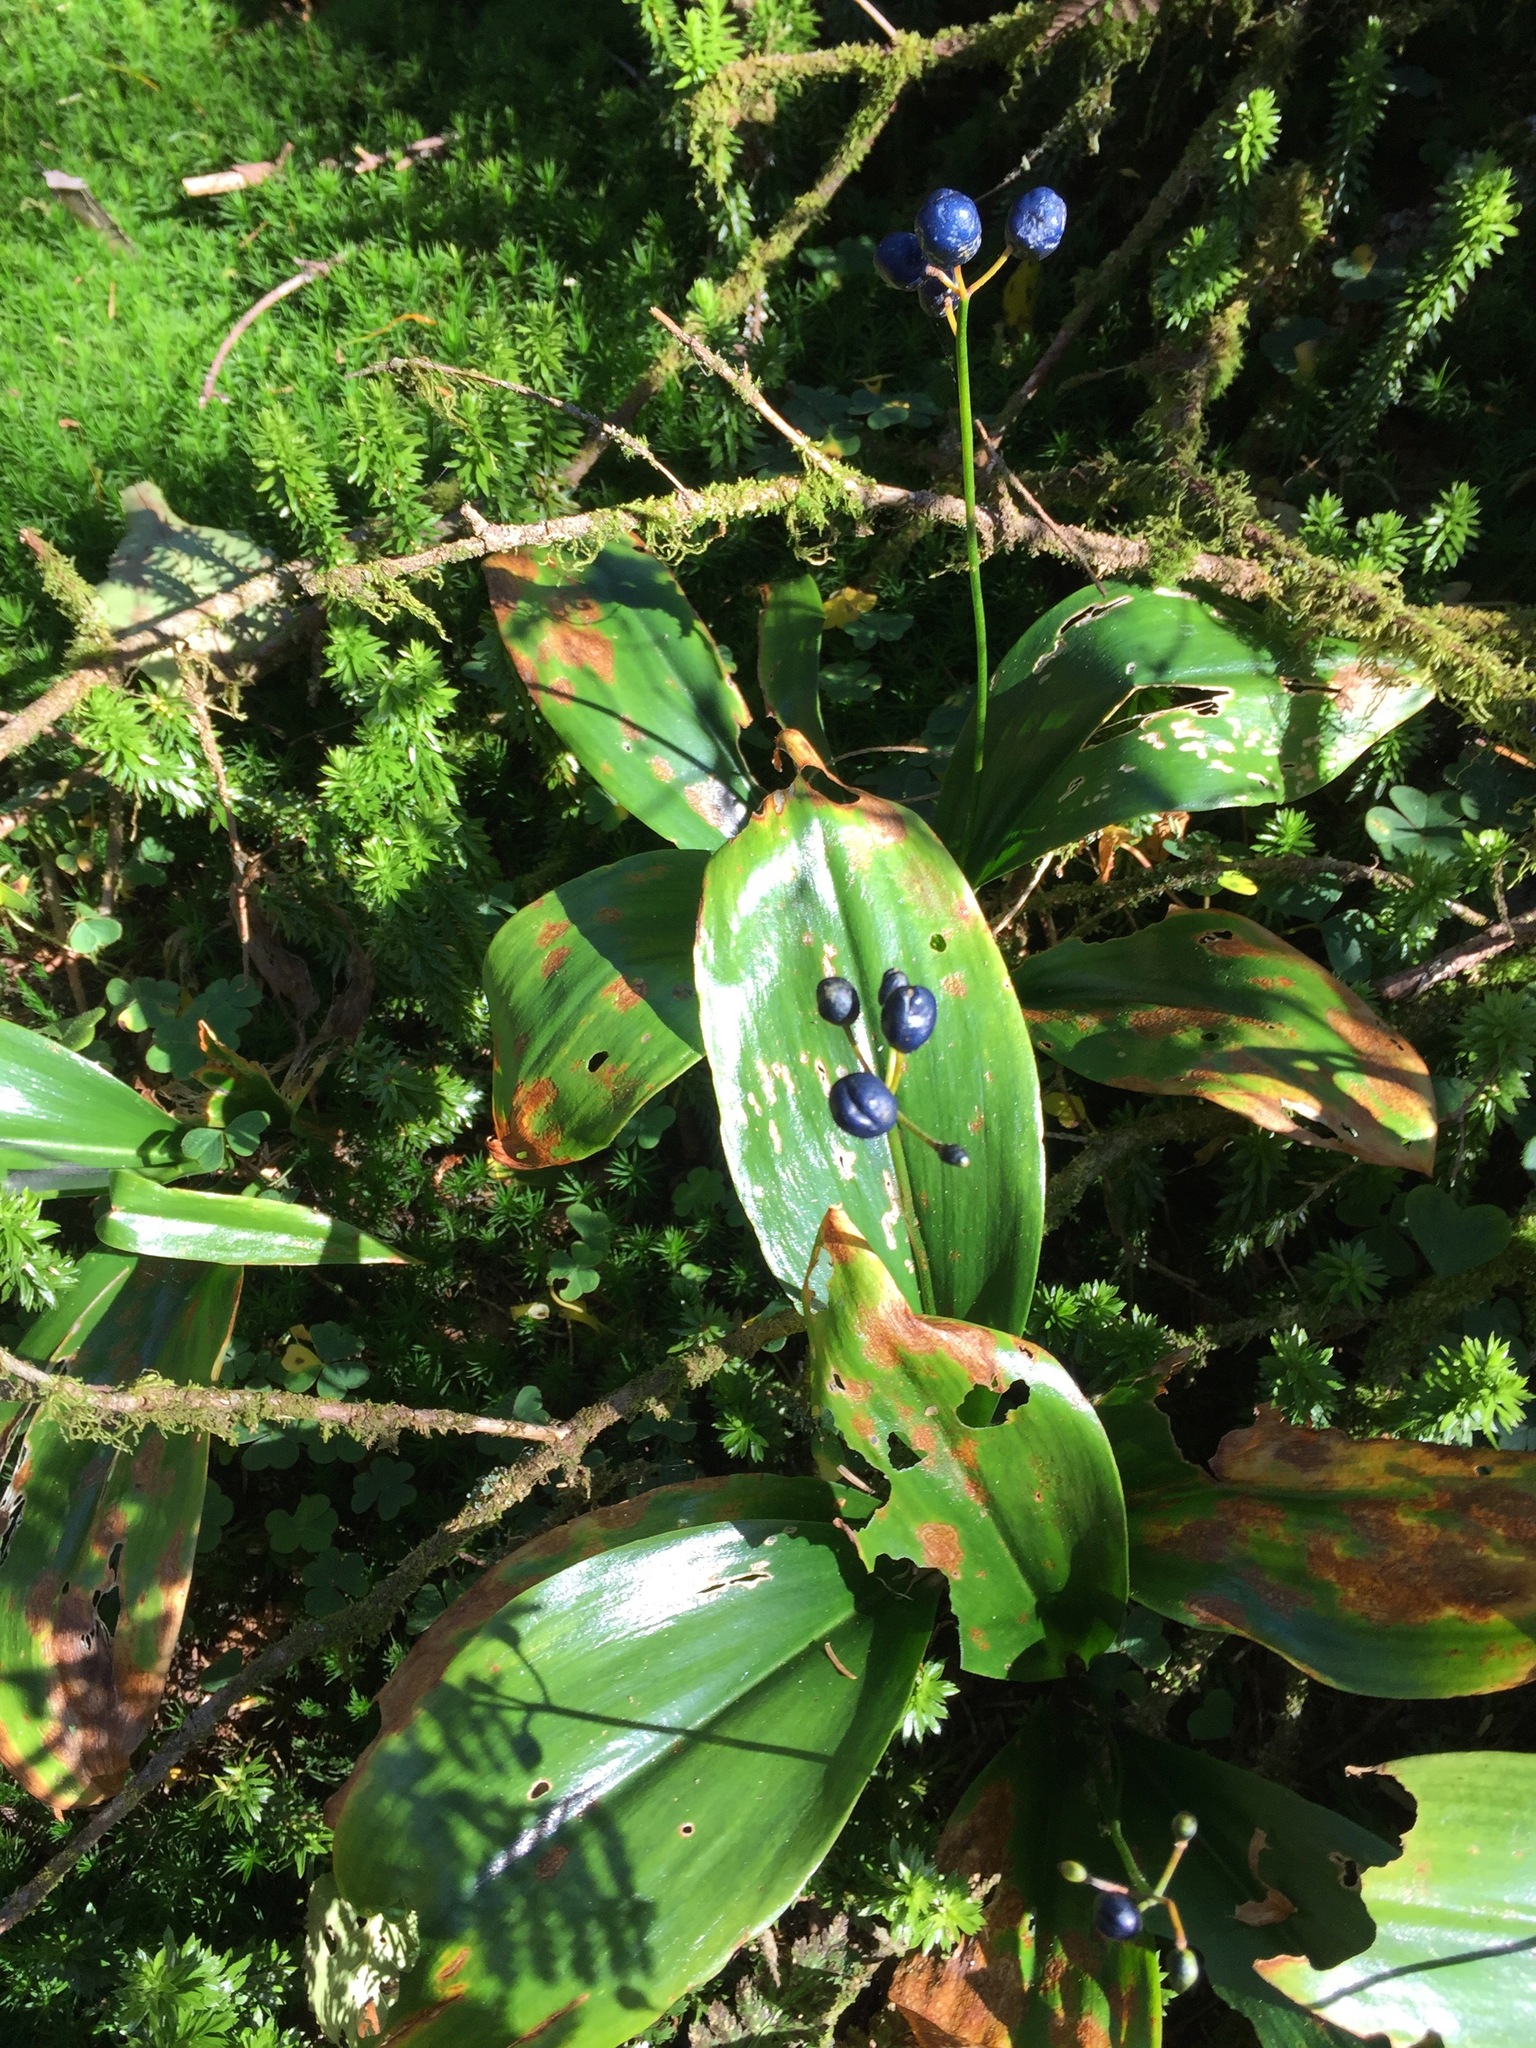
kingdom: Plantae
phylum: Tracheophyta
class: Liliopsida
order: Liliales
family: Liliaceae
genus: Clintonia
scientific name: Clintonia borealis
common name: Yellow clintonia
